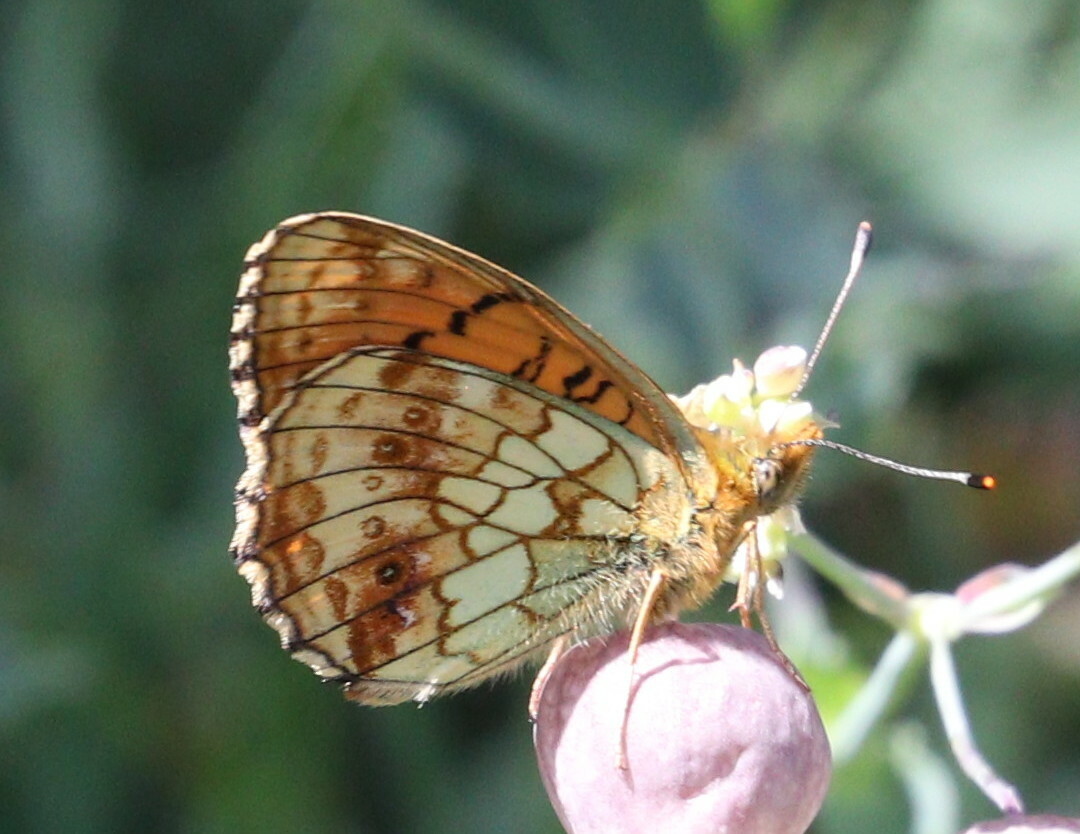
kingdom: Animalia
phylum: Arthropoda
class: Insecta
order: Lepidoptera
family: Nymphalidae
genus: Brenthis
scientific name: Brenthis ino
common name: Lesser marbled fritillary
